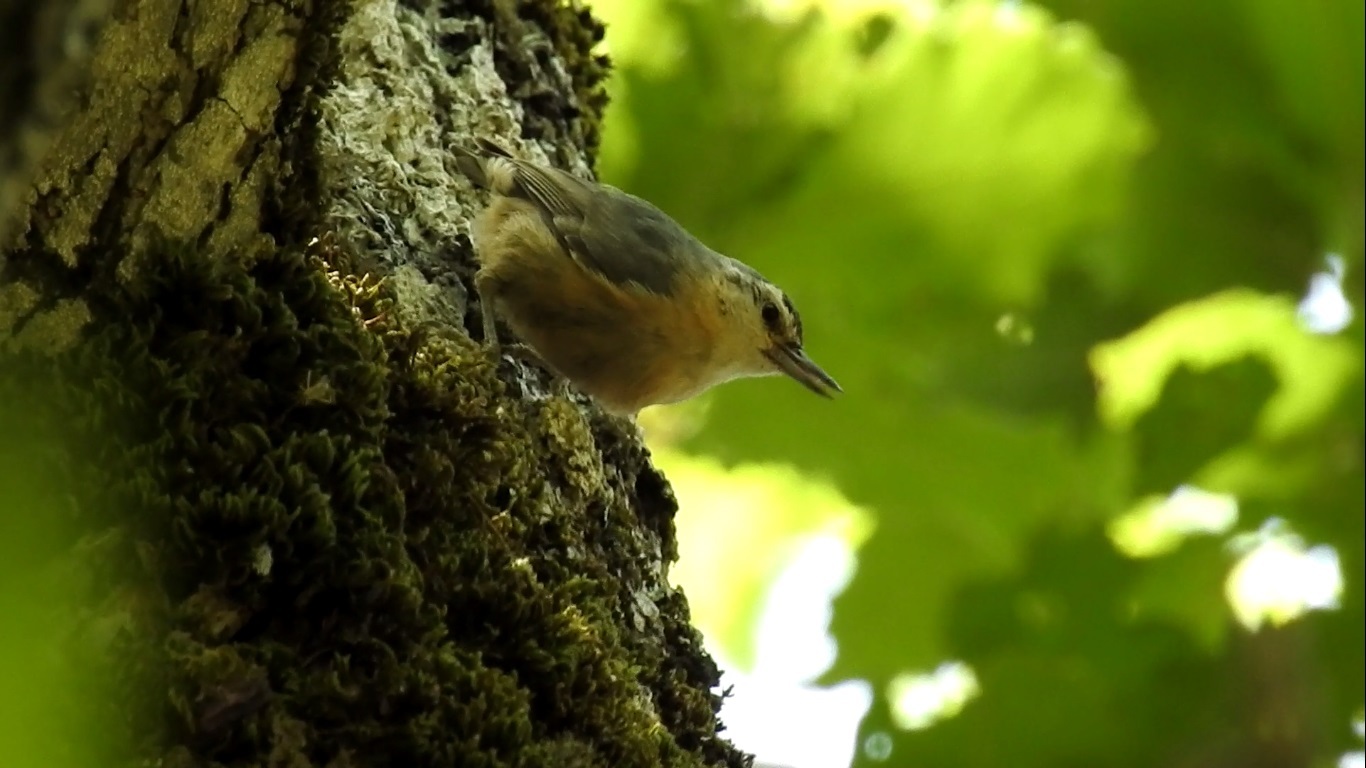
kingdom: Animalia
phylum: Chordata
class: Aves
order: Passeriformes
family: Sittidae
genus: Sitta
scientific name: Sitta ledanti
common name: Algerian nuthatch
